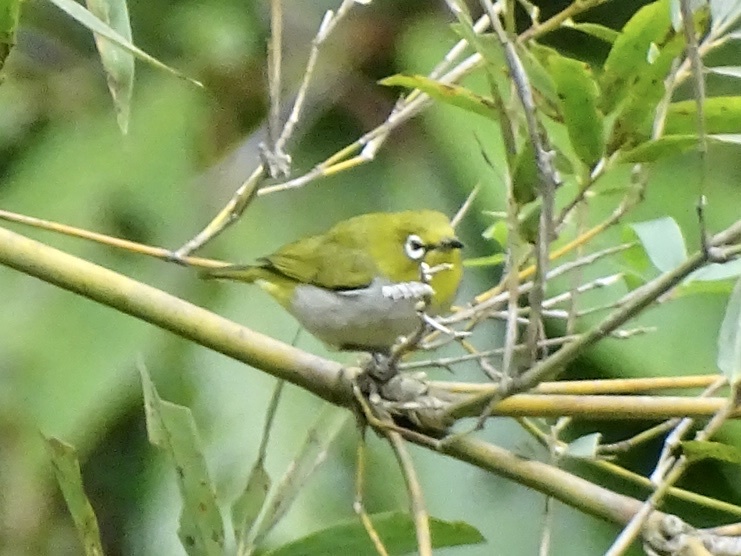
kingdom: Animalia
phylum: Chordata
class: Aves
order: Passeriformes
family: Zosteropidae
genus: Zosterops
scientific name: Zosterops simplex
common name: Swinhoe's white-eye
